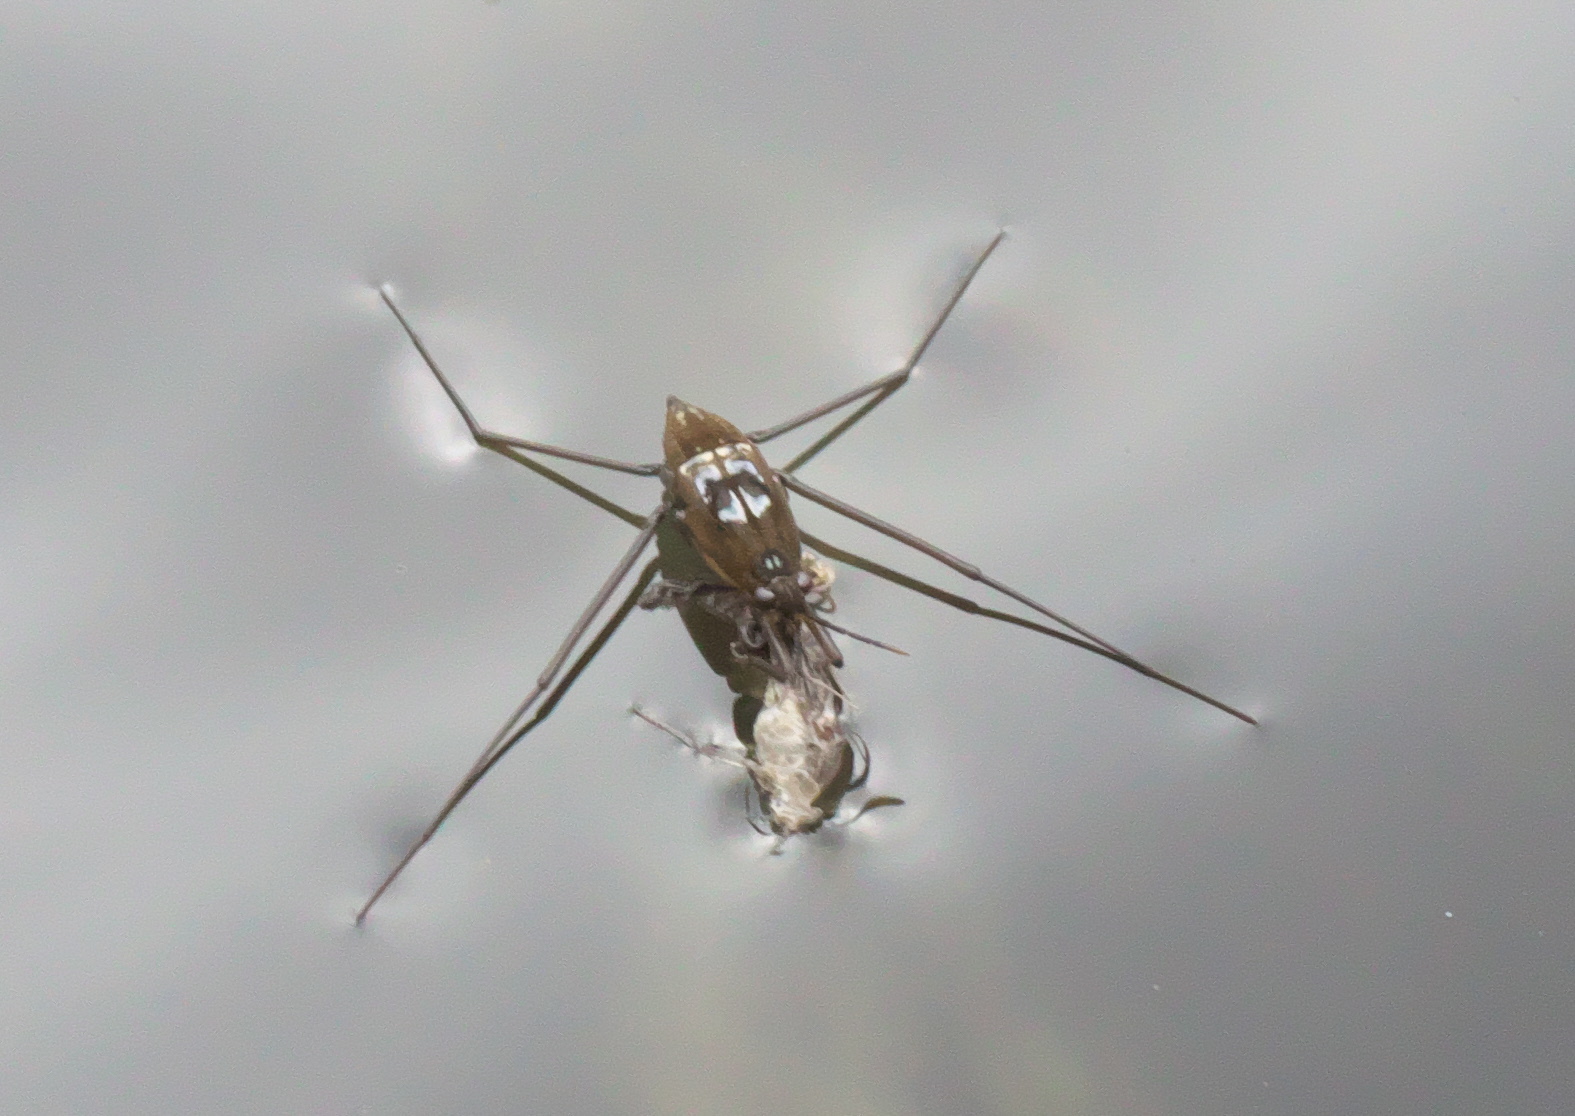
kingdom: Animalia
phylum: Arthropoda
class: Insecta
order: Hemiptera
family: Gerridae
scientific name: Gerridae
